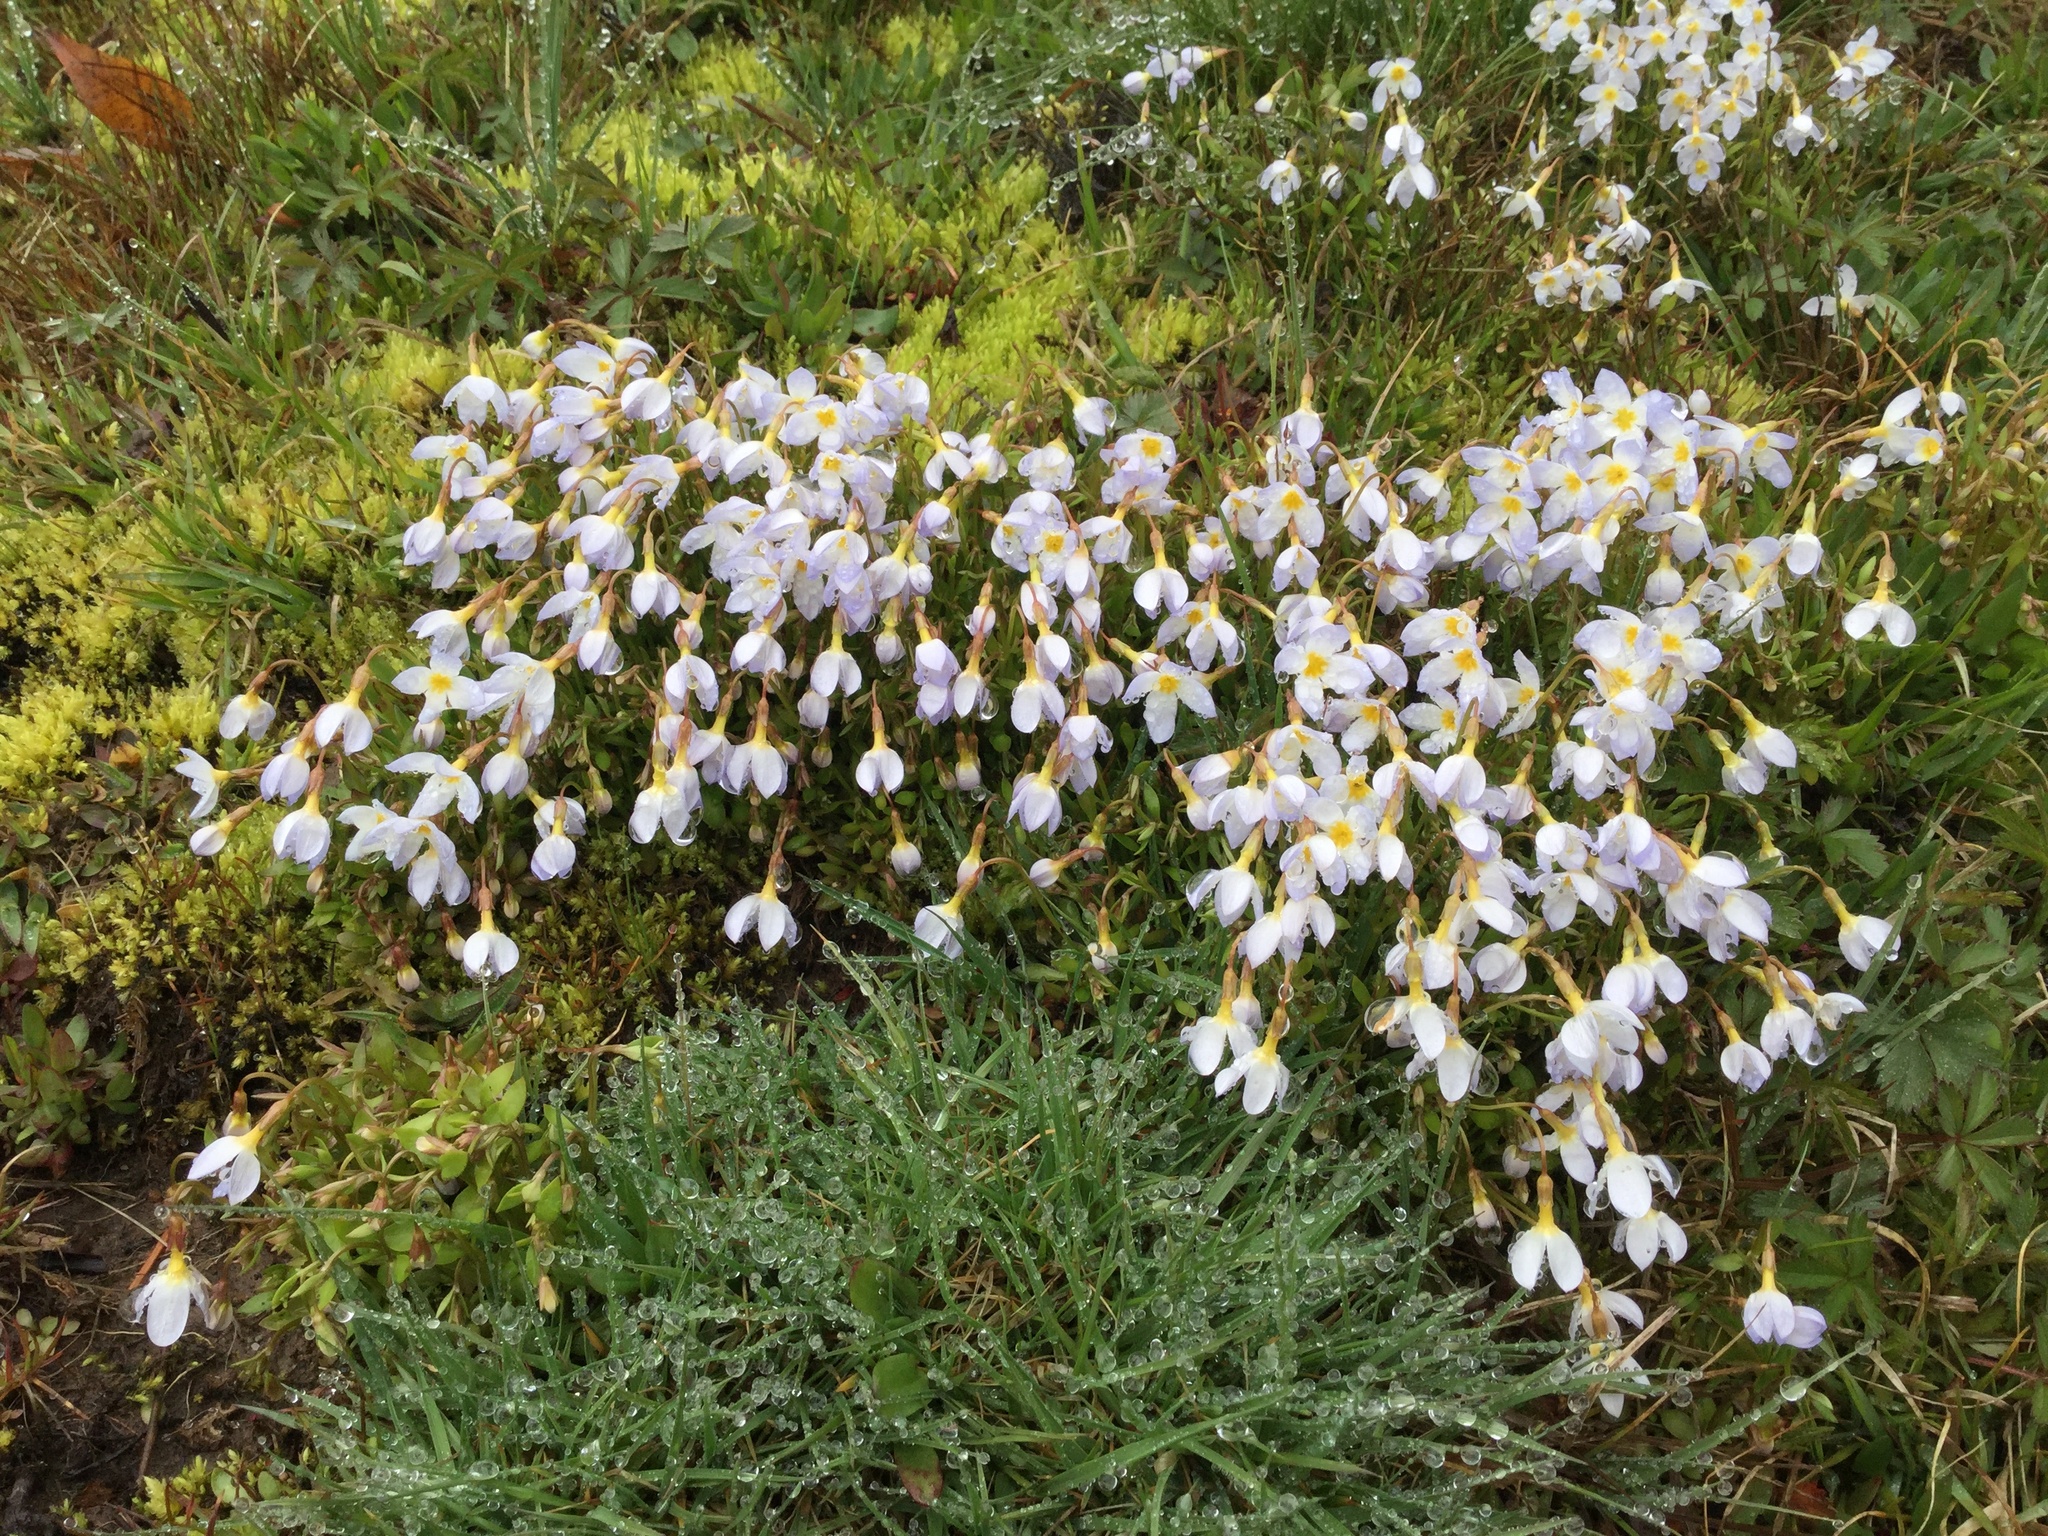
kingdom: Plantae
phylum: Tracheophyta
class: Magnoliopsida
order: Gentianales
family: Rubiaceae
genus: Houstonia
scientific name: Houstonia caerulea
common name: Bluets
